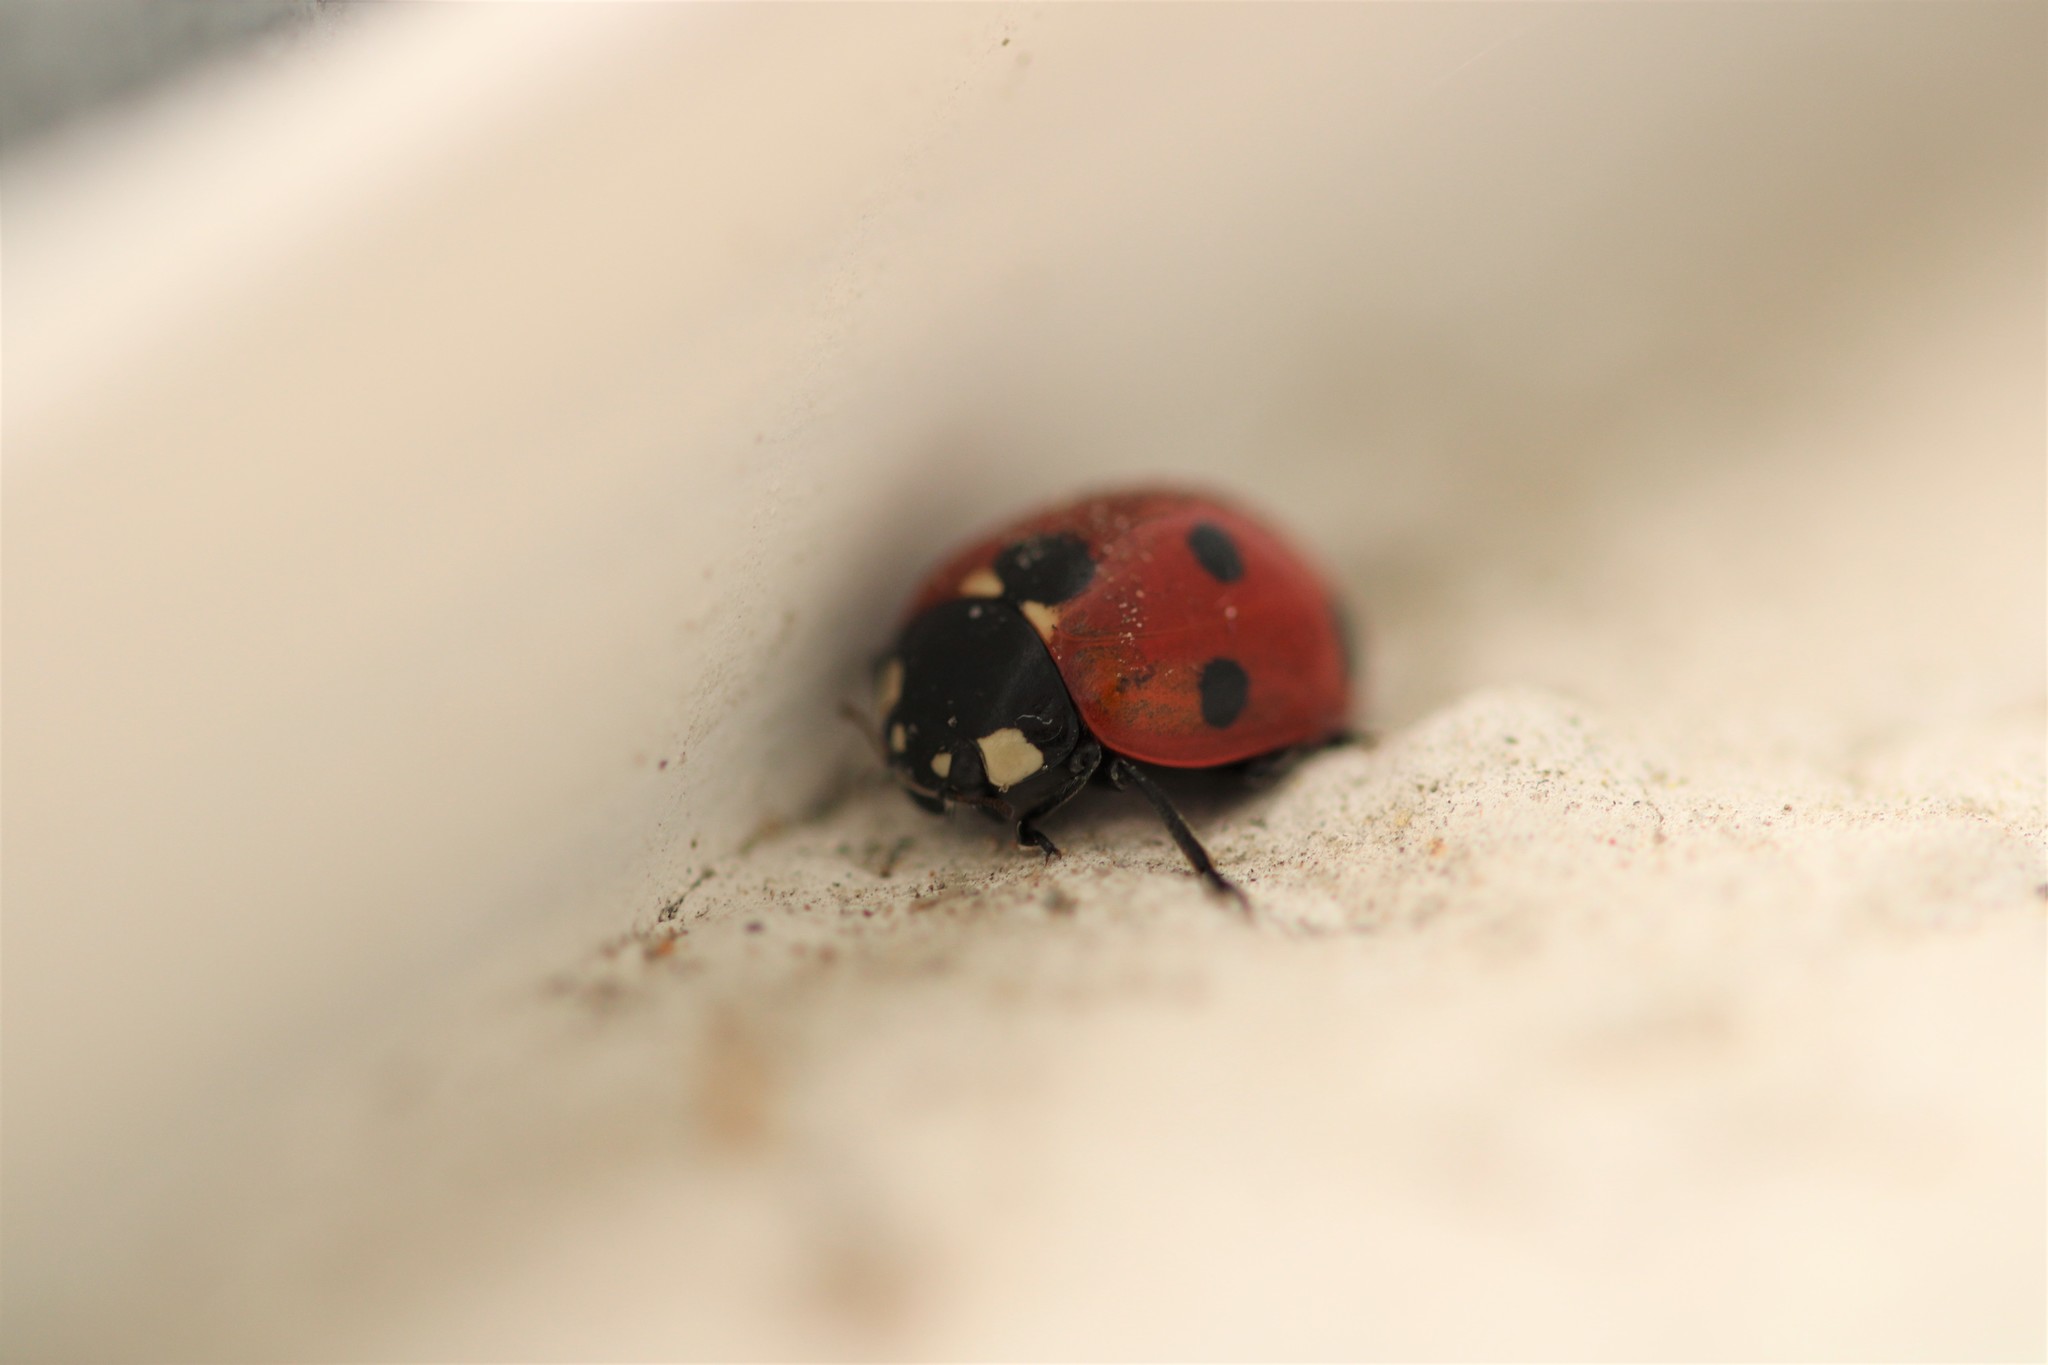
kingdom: Animalia
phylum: Arthropoda
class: Insecta
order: Coleoptera
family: Coccinellidae
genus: Coccinella
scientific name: Coccinella septempunctata
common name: Sevenspotted lady beetle
